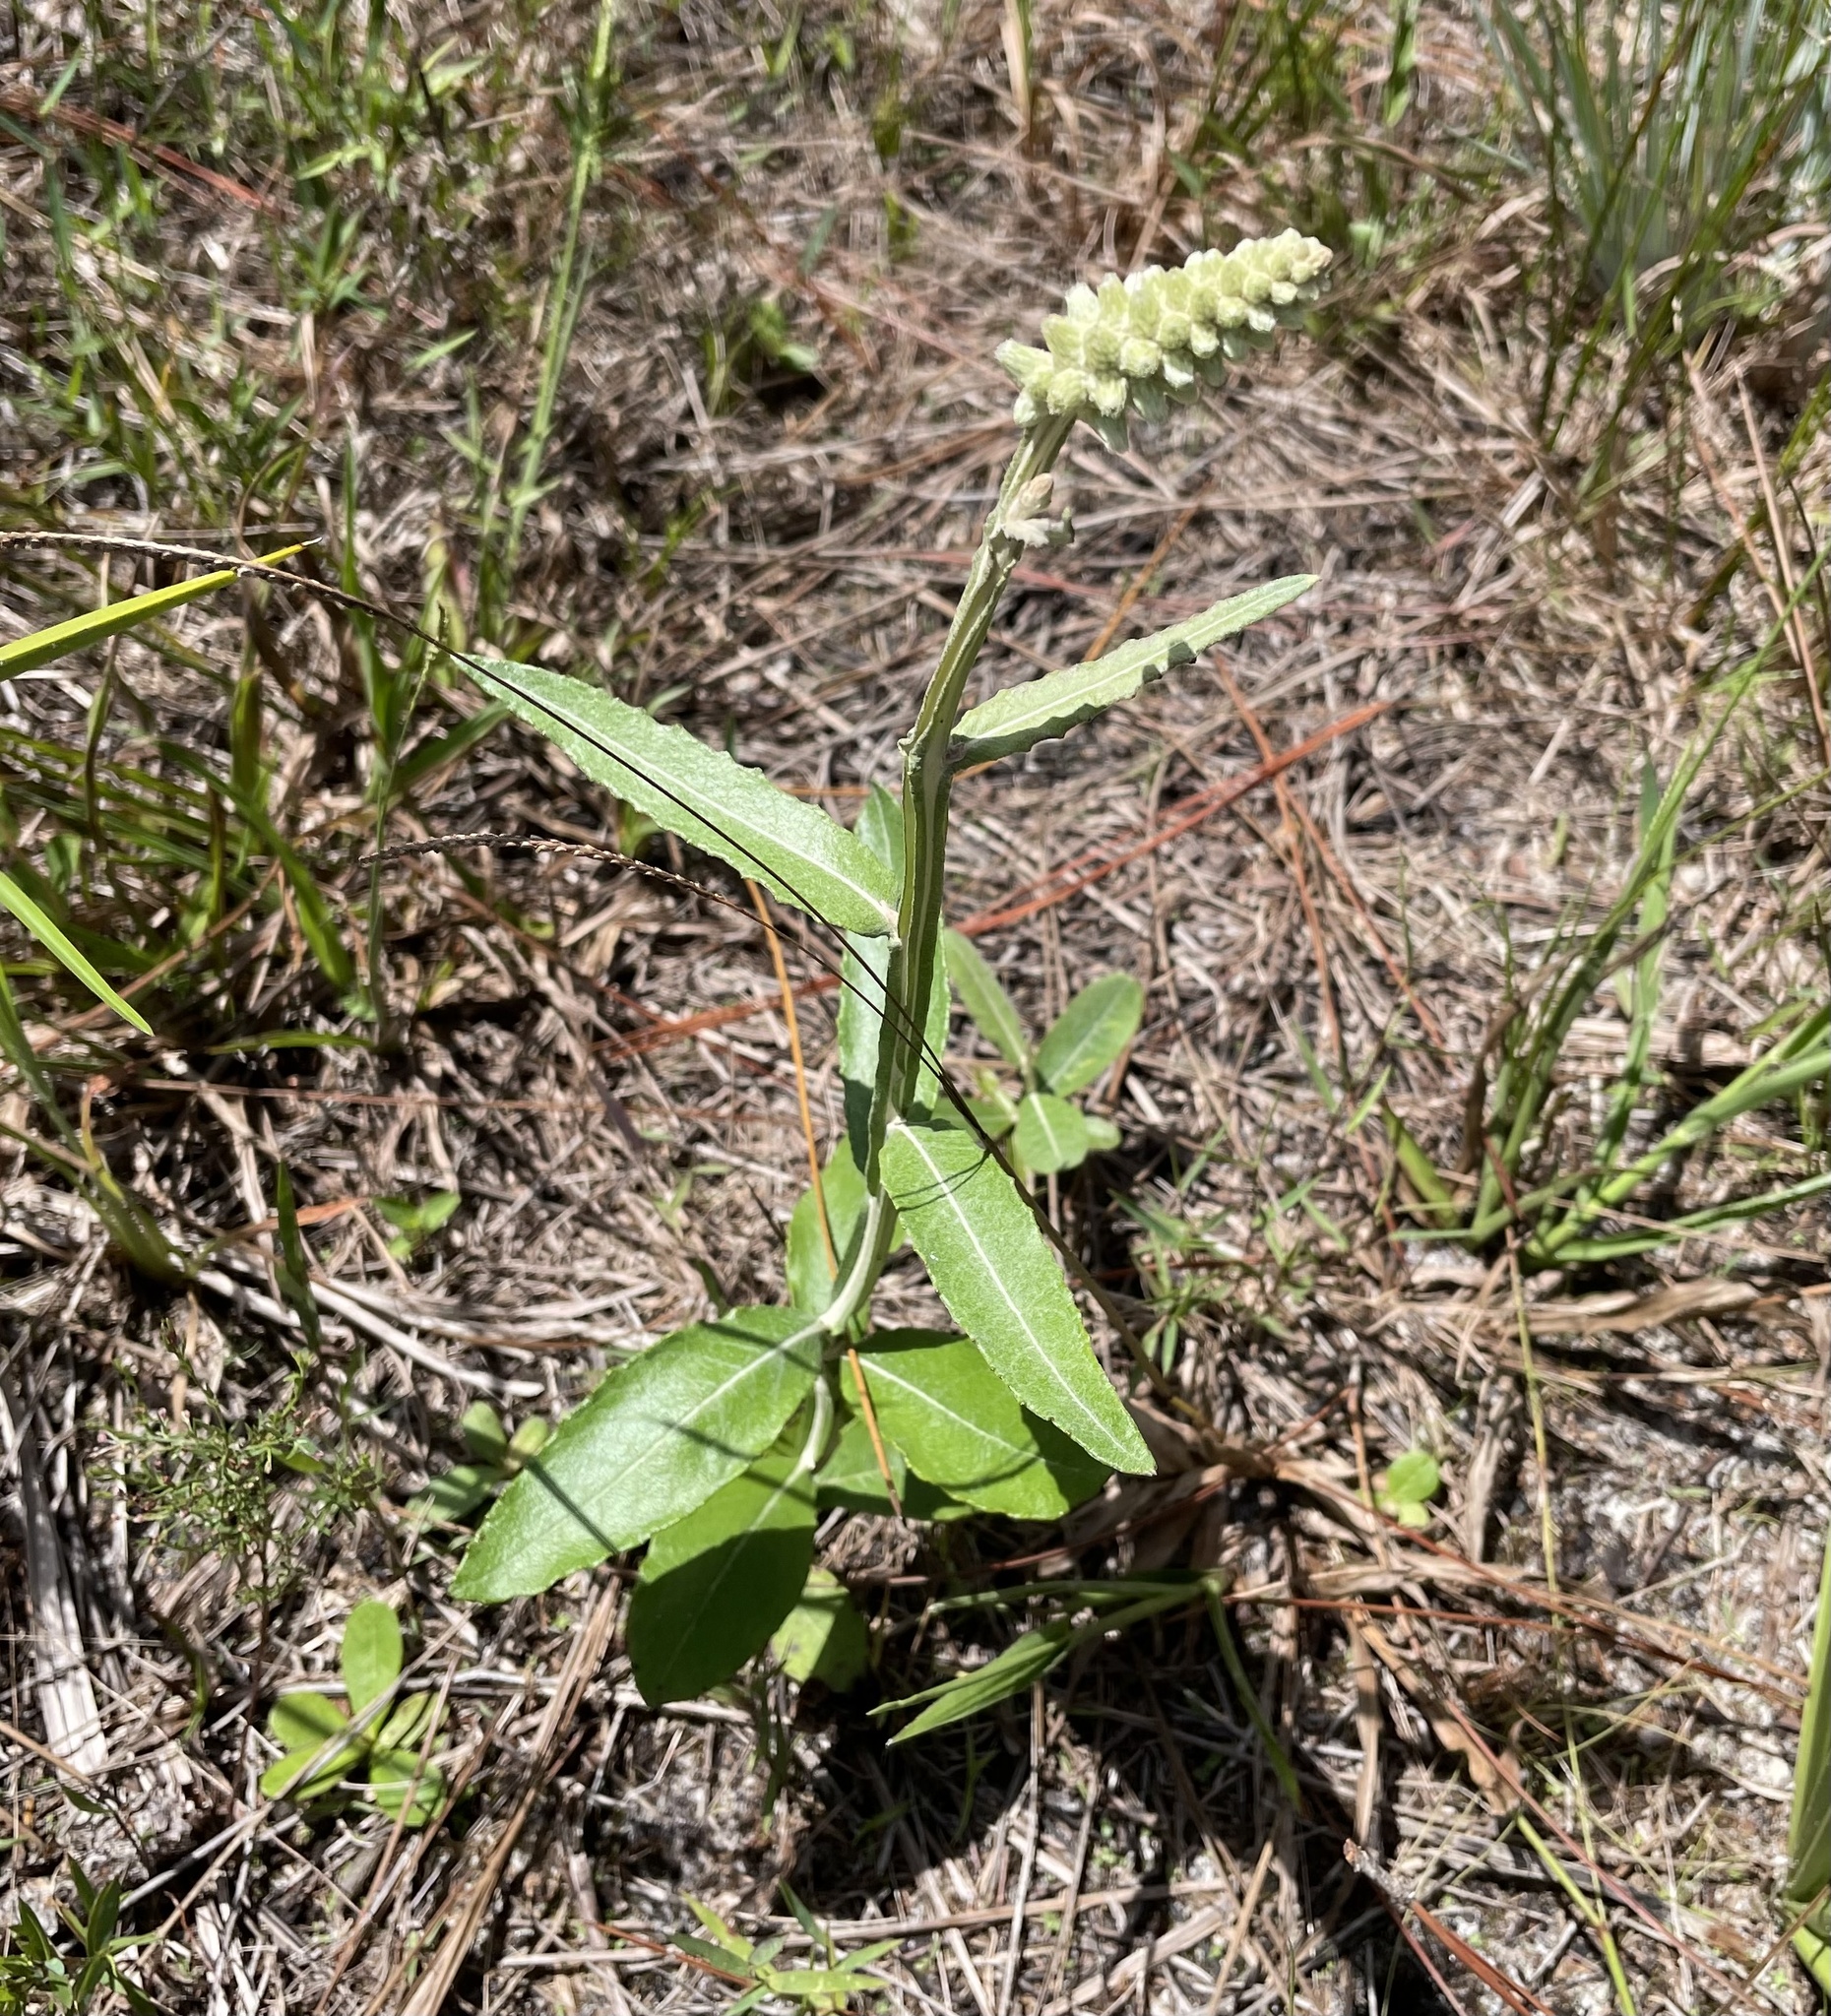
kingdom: Plantae
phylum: Tracheophyta
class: Magnoliopsida
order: Asterales
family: Asteraceae
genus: Pterocaulon
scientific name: Pterocaulon pycnostachyum
